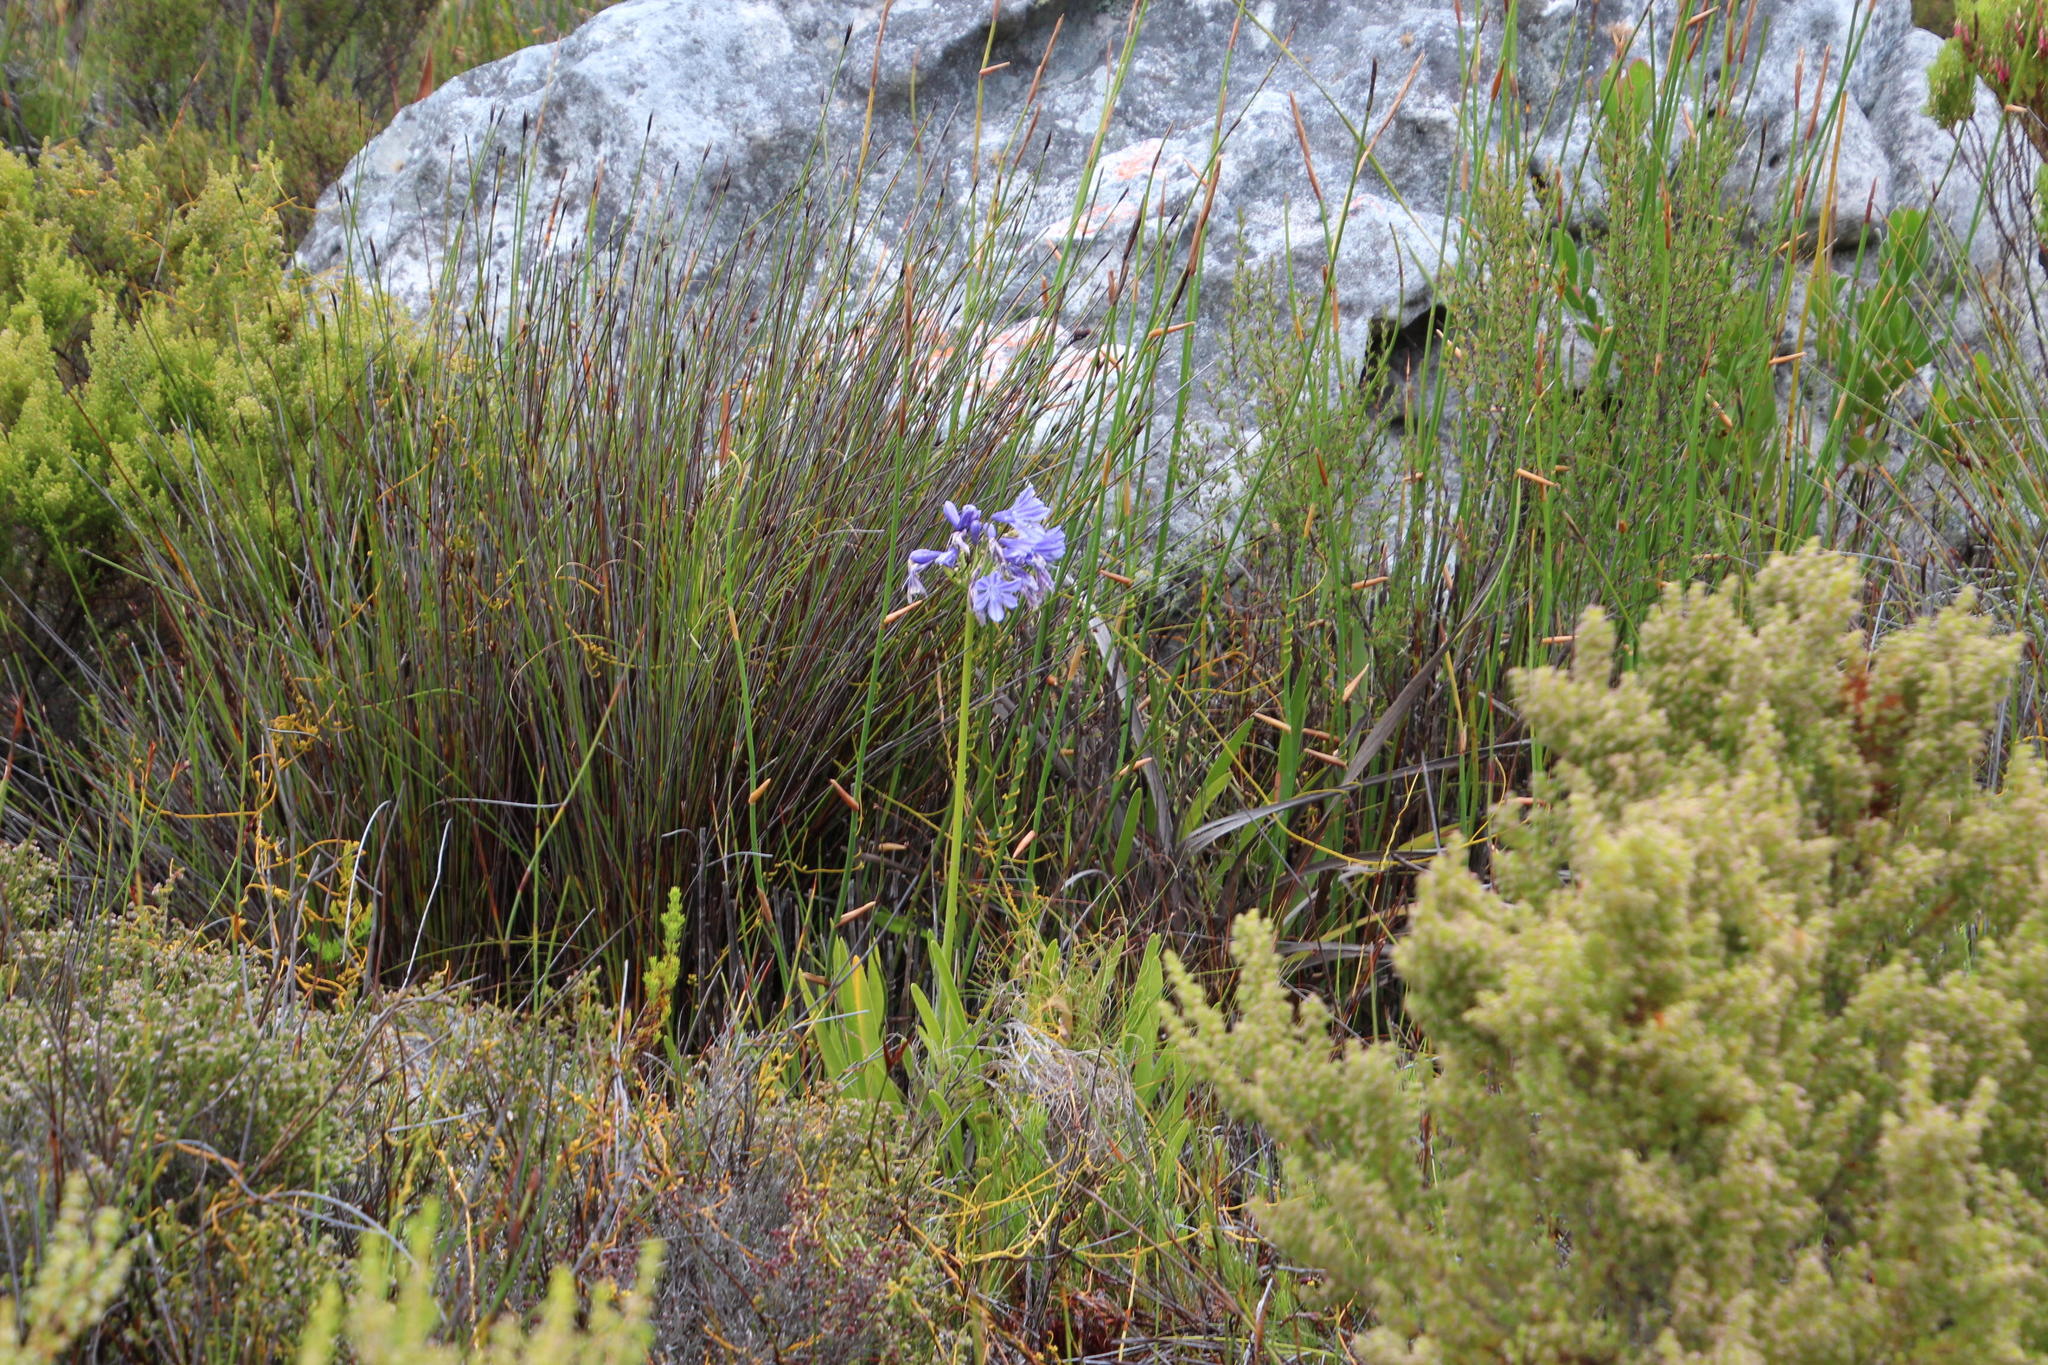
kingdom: Plantae
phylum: Tracheophyta
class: Liliopsida
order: Asparagales
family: Amaryllidaceae
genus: Agapanthus
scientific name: Agapanthus africanus
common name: Lily-of-the-nile
